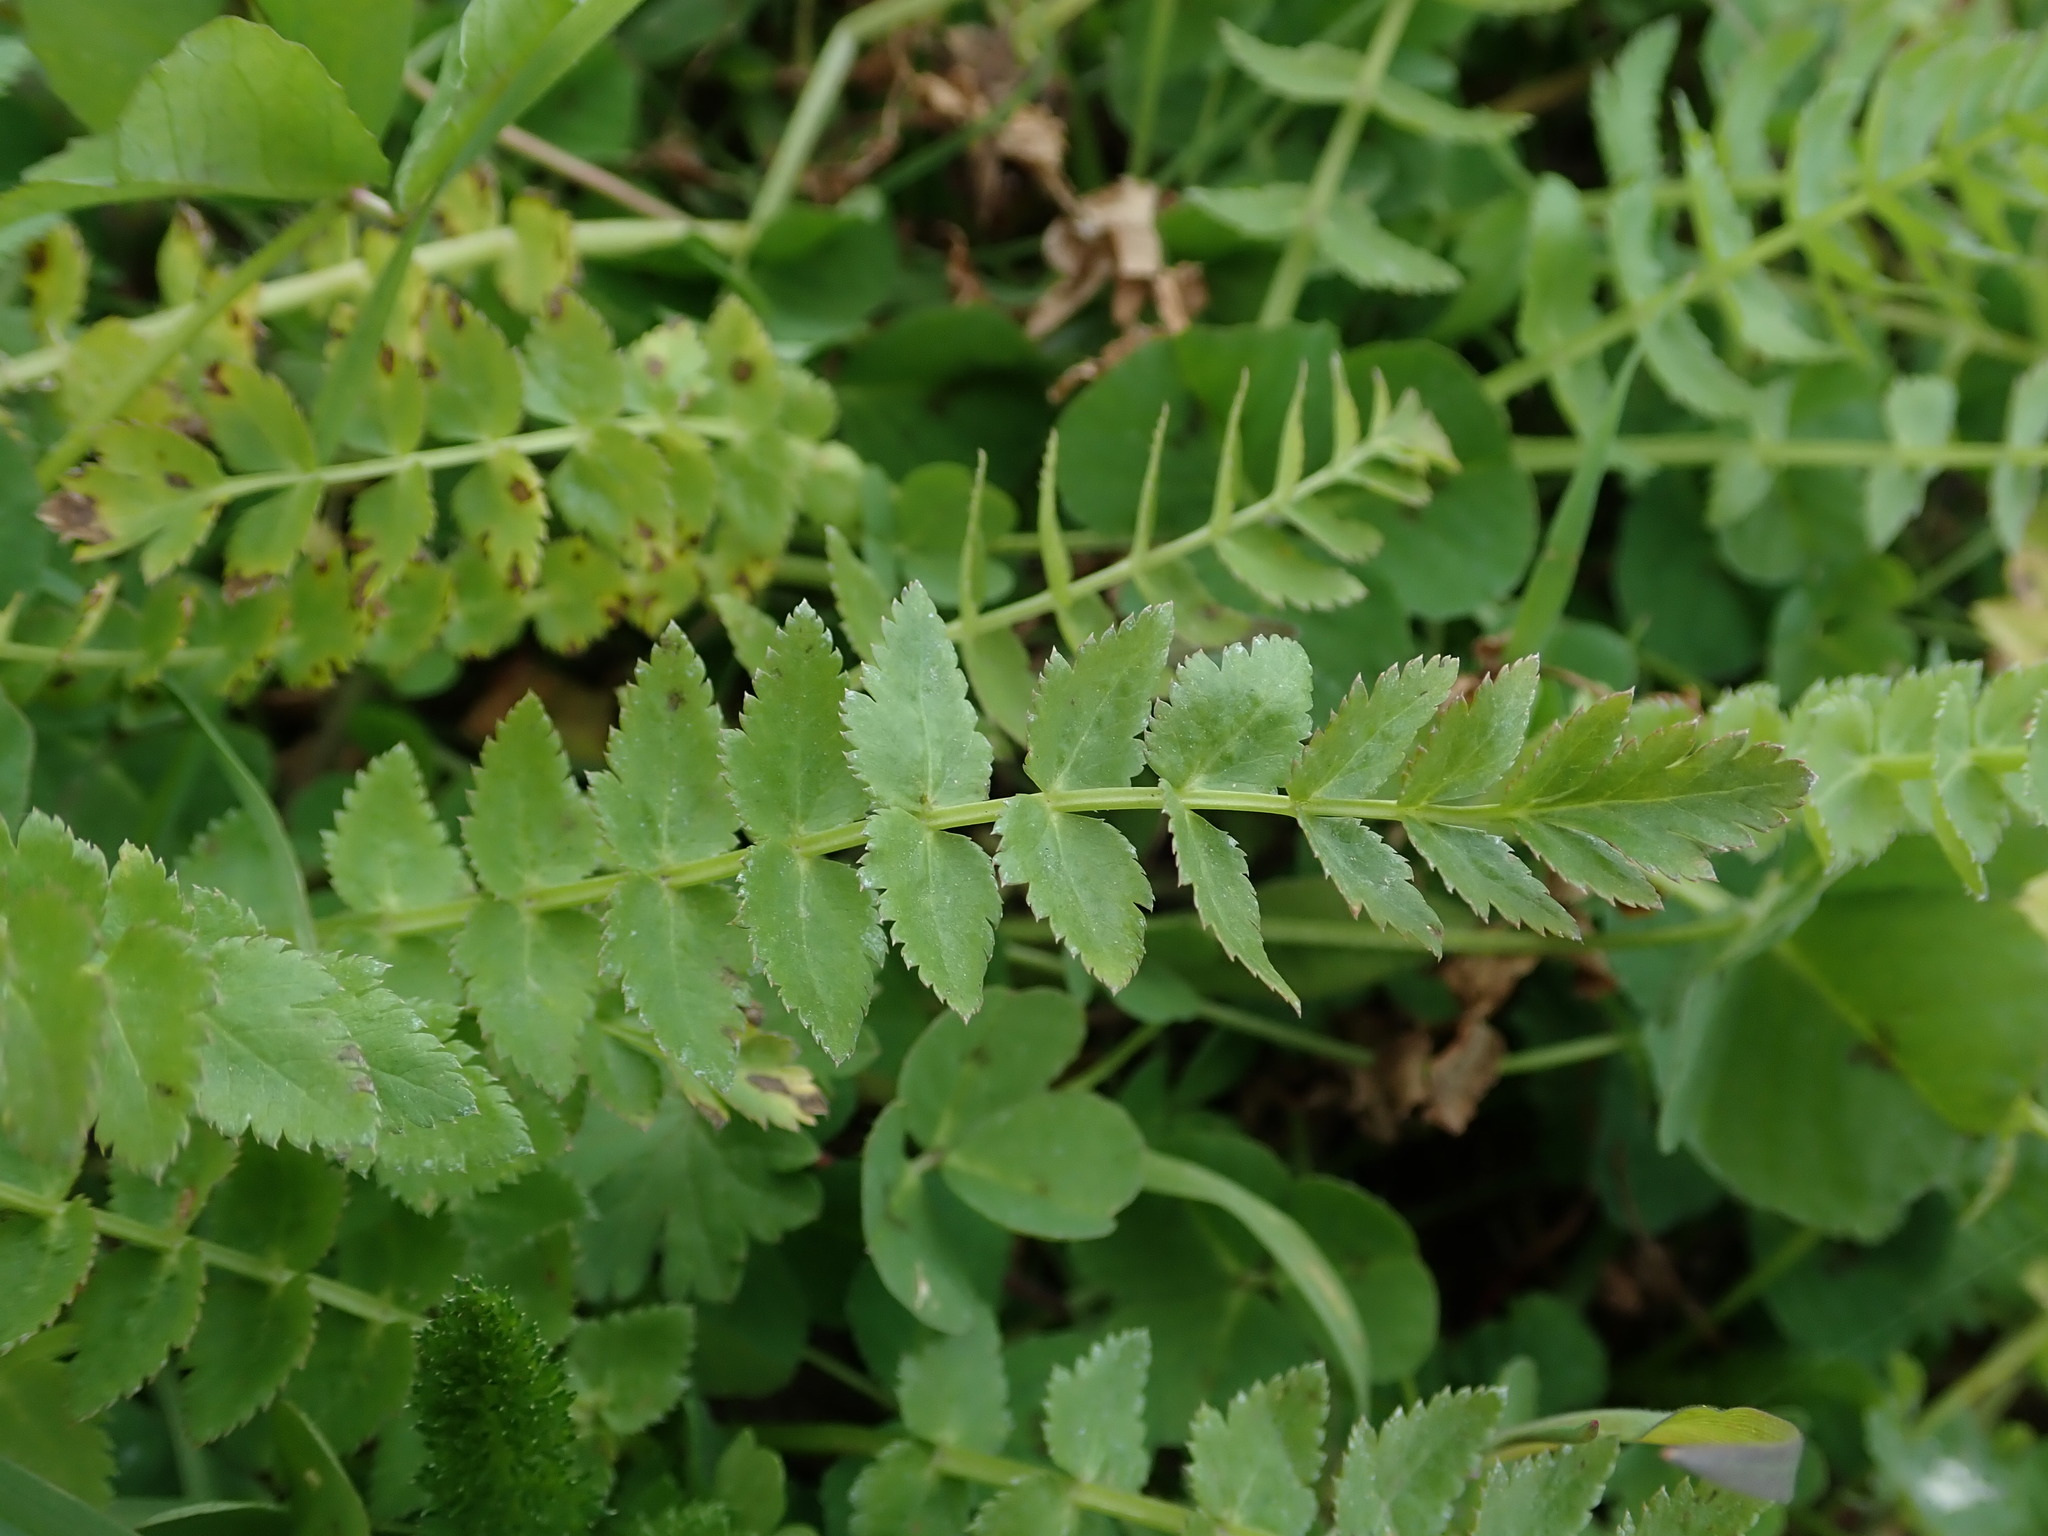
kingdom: Plantae
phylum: Tracheophyta
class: Magnoliopsida
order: Apiales
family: Apiaceae
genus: Sison
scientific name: Sison segetum
